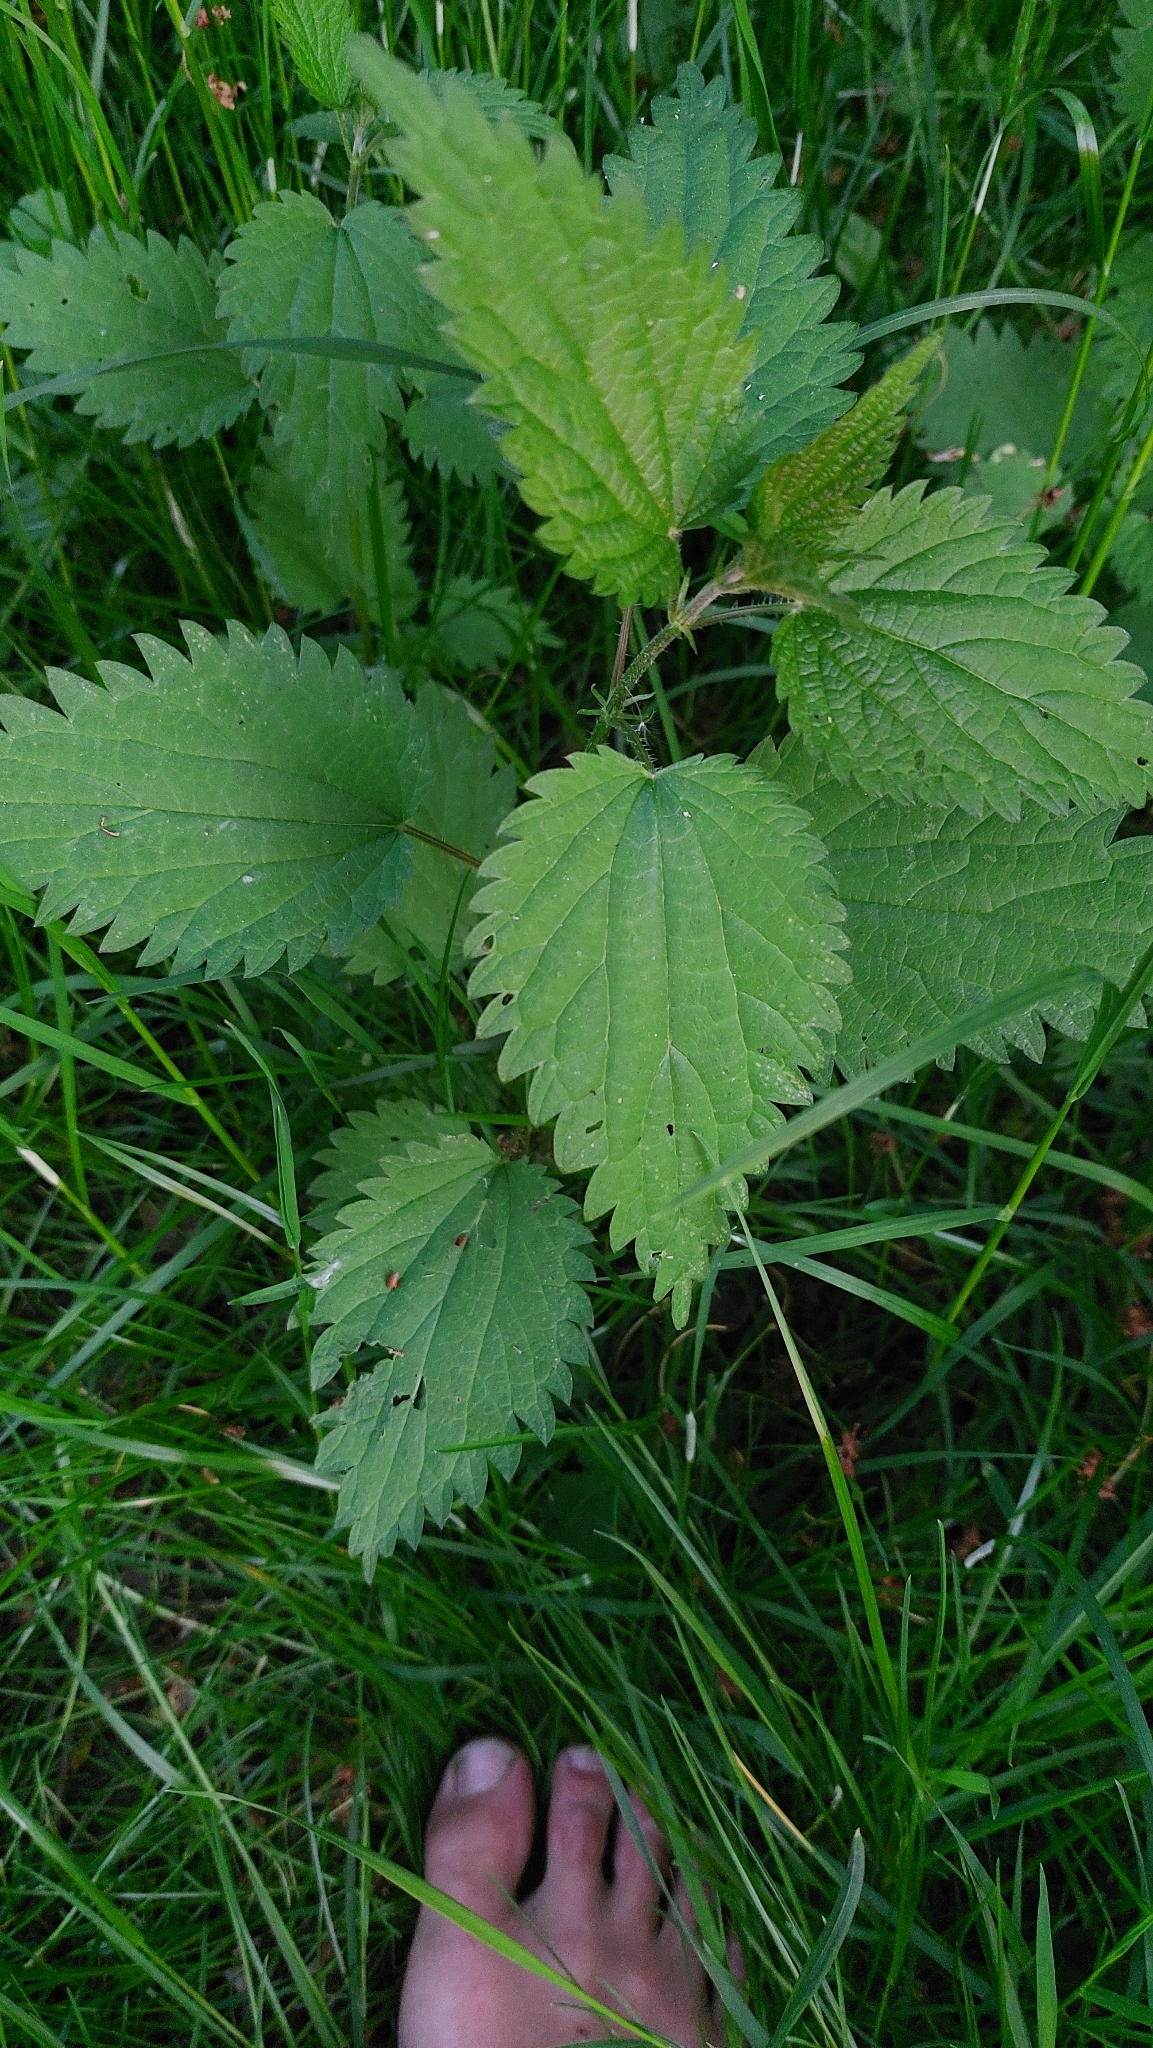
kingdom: Plantae
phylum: Tracheophyta
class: Magnoliopsida
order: Rosales
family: Urticaceae
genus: Urtica
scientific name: Urtica dioica
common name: Common nettle
